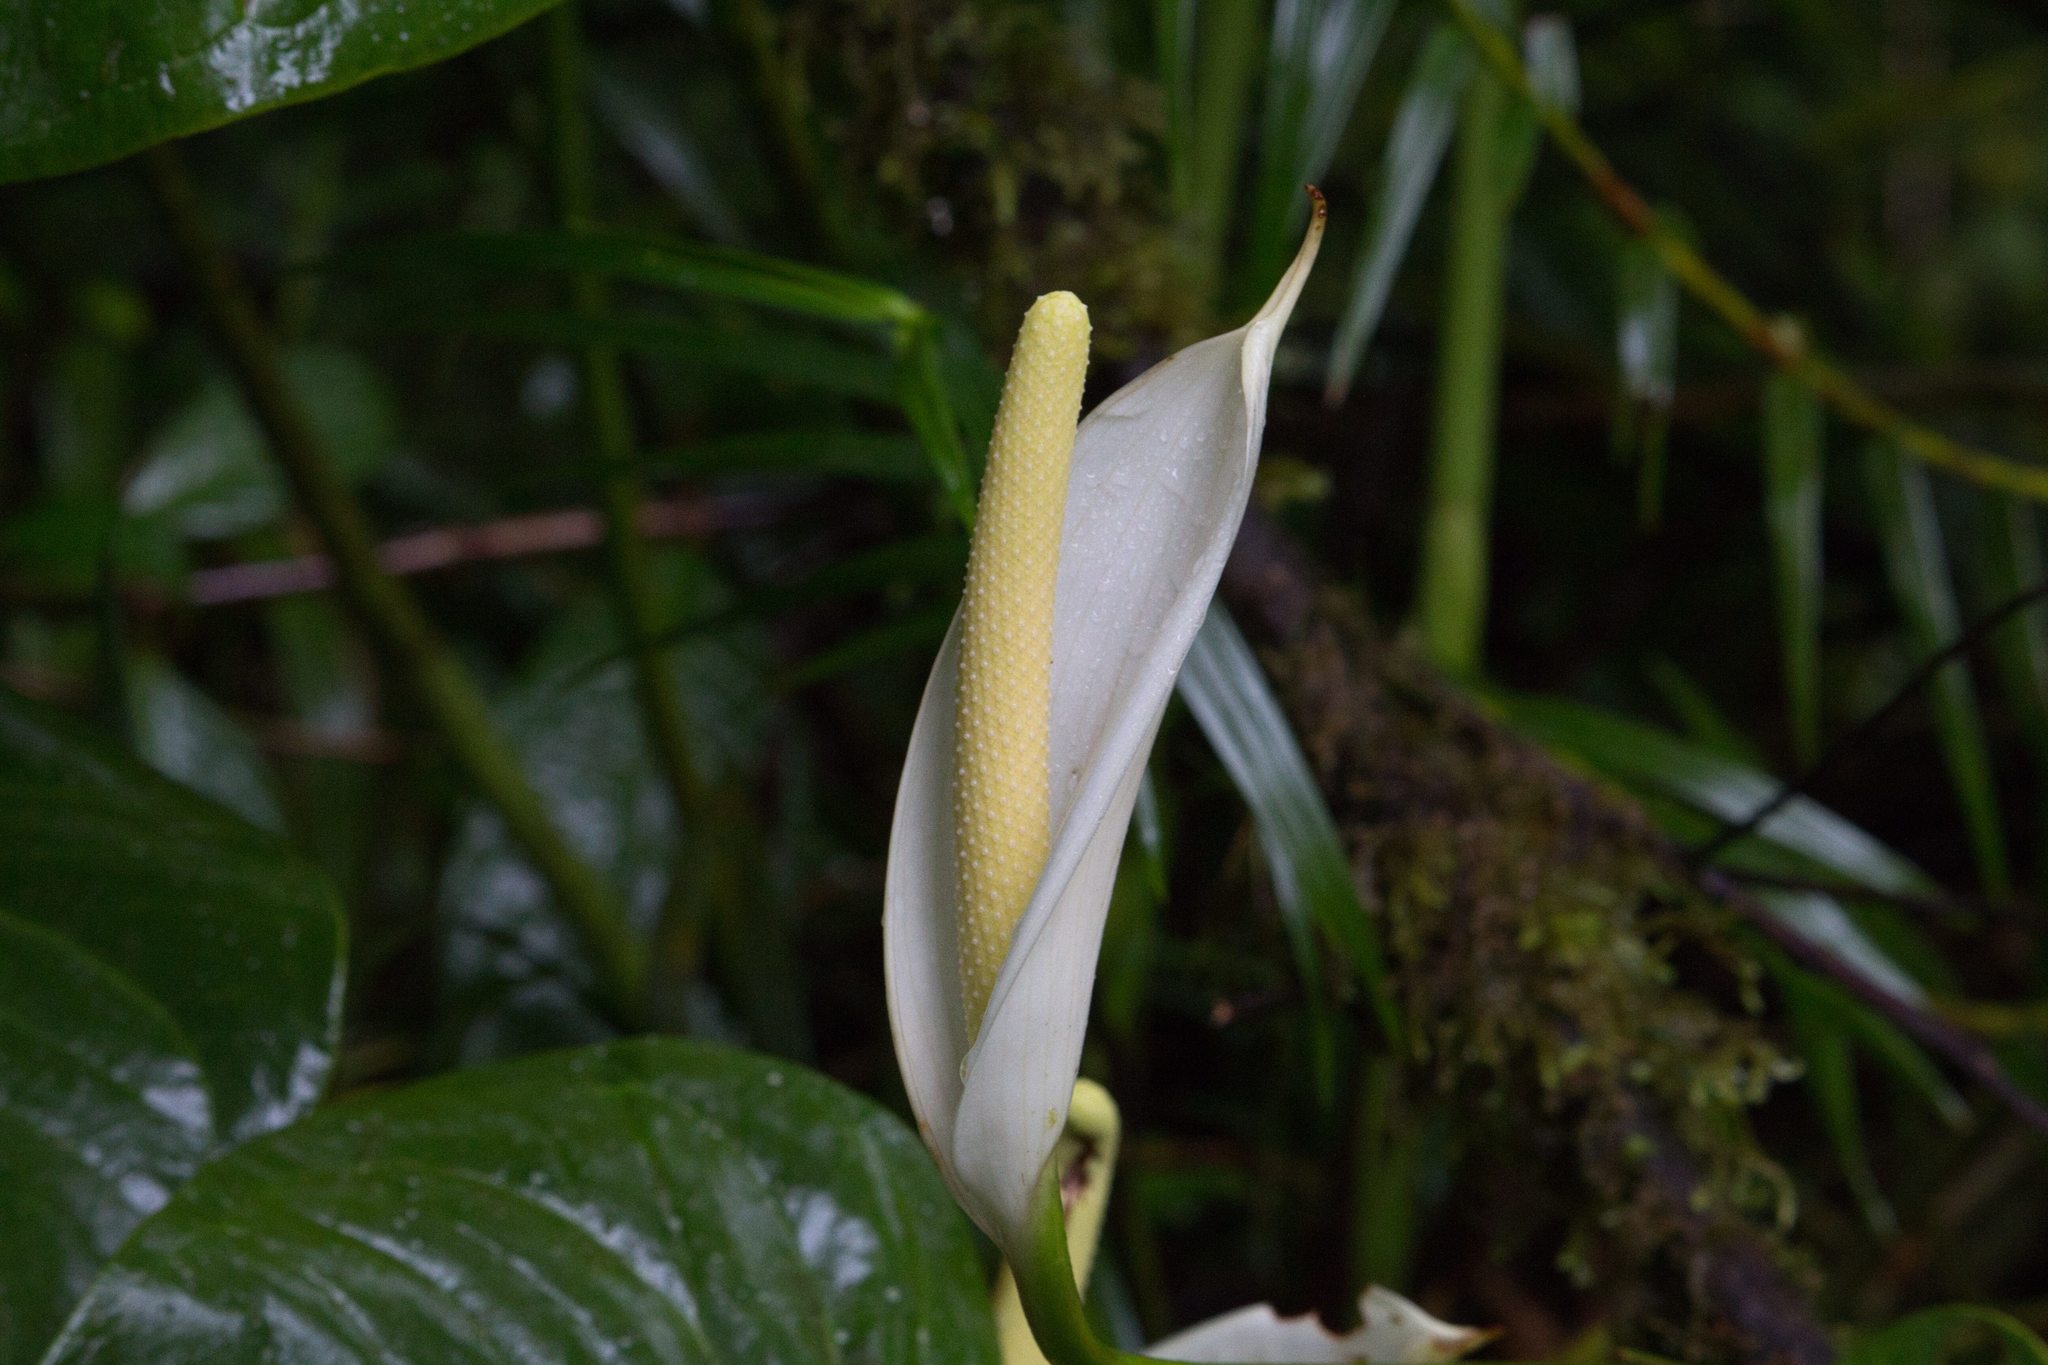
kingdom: Plantae
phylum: Tracheophyta
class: Liliopsida
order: Alismatales
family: Araceae
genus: Anthurium
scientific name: Anthurium monteverdense
